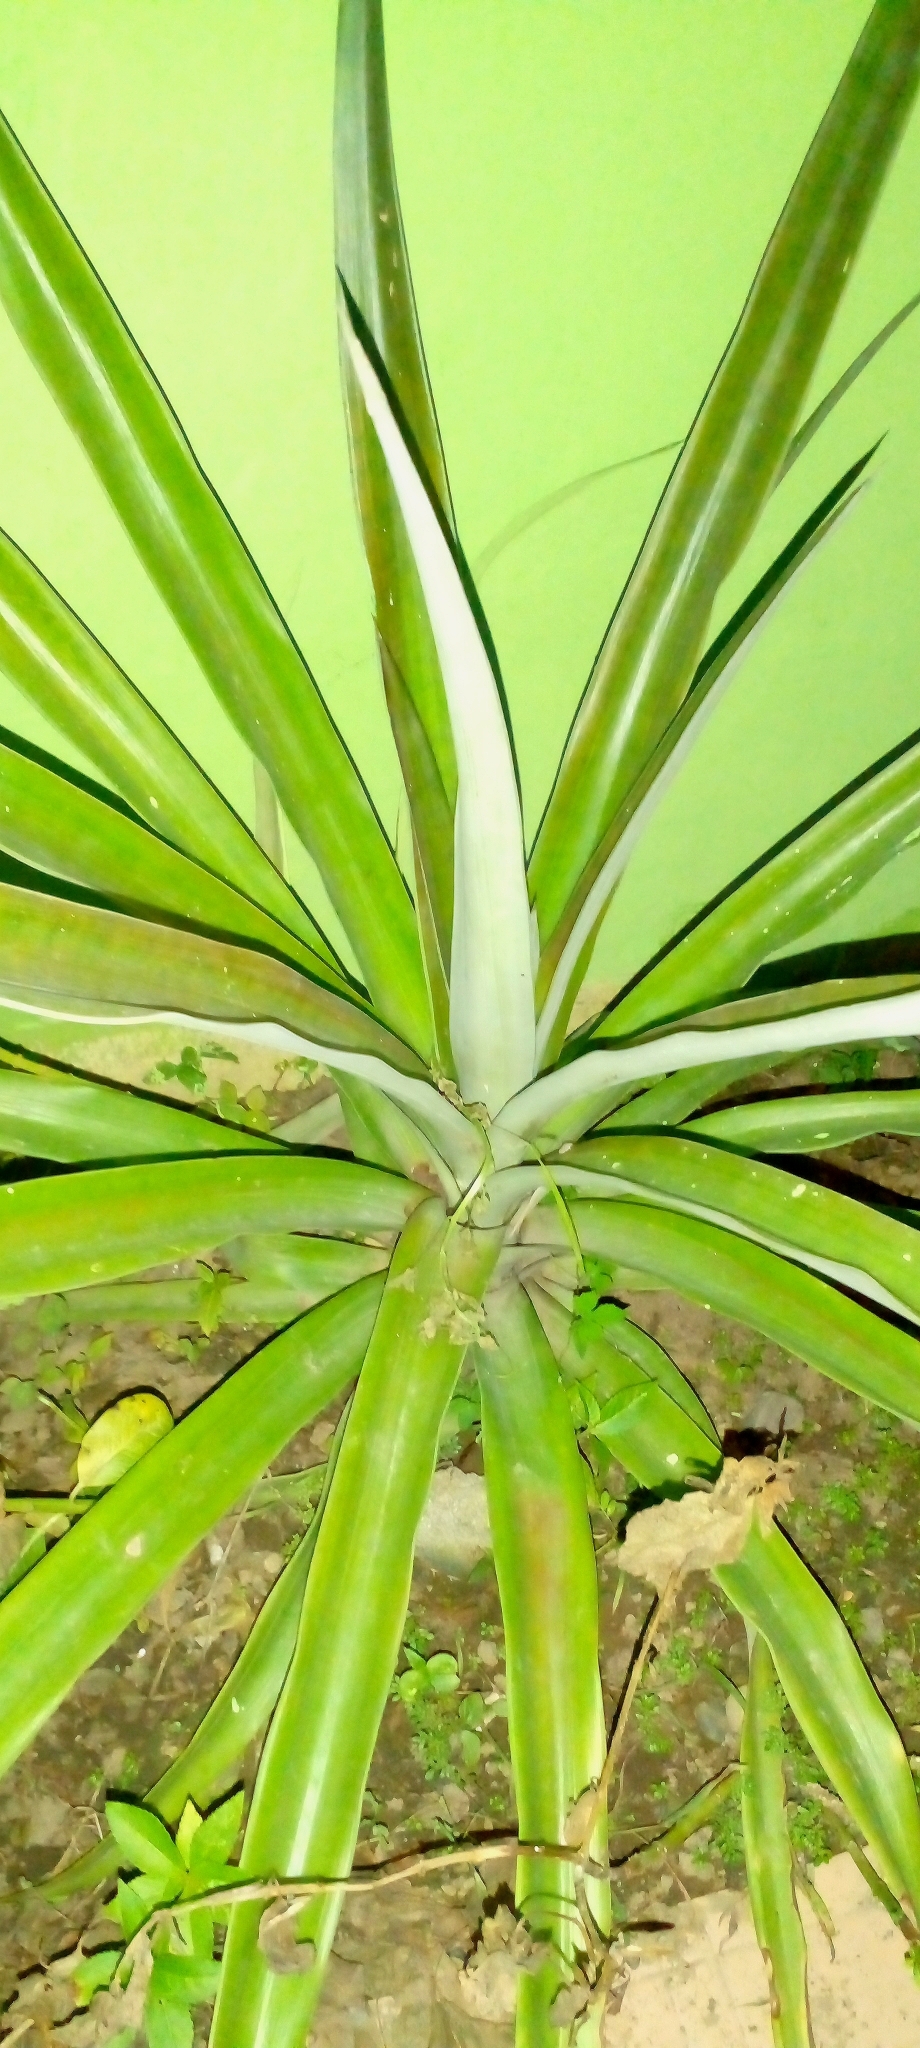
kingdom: Plantae
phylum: Tracheophyta
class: Liliopsida
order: Asparagales
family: Asparagaceae
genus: Agave
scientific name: Agave angustifolia
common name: Mescal agave
